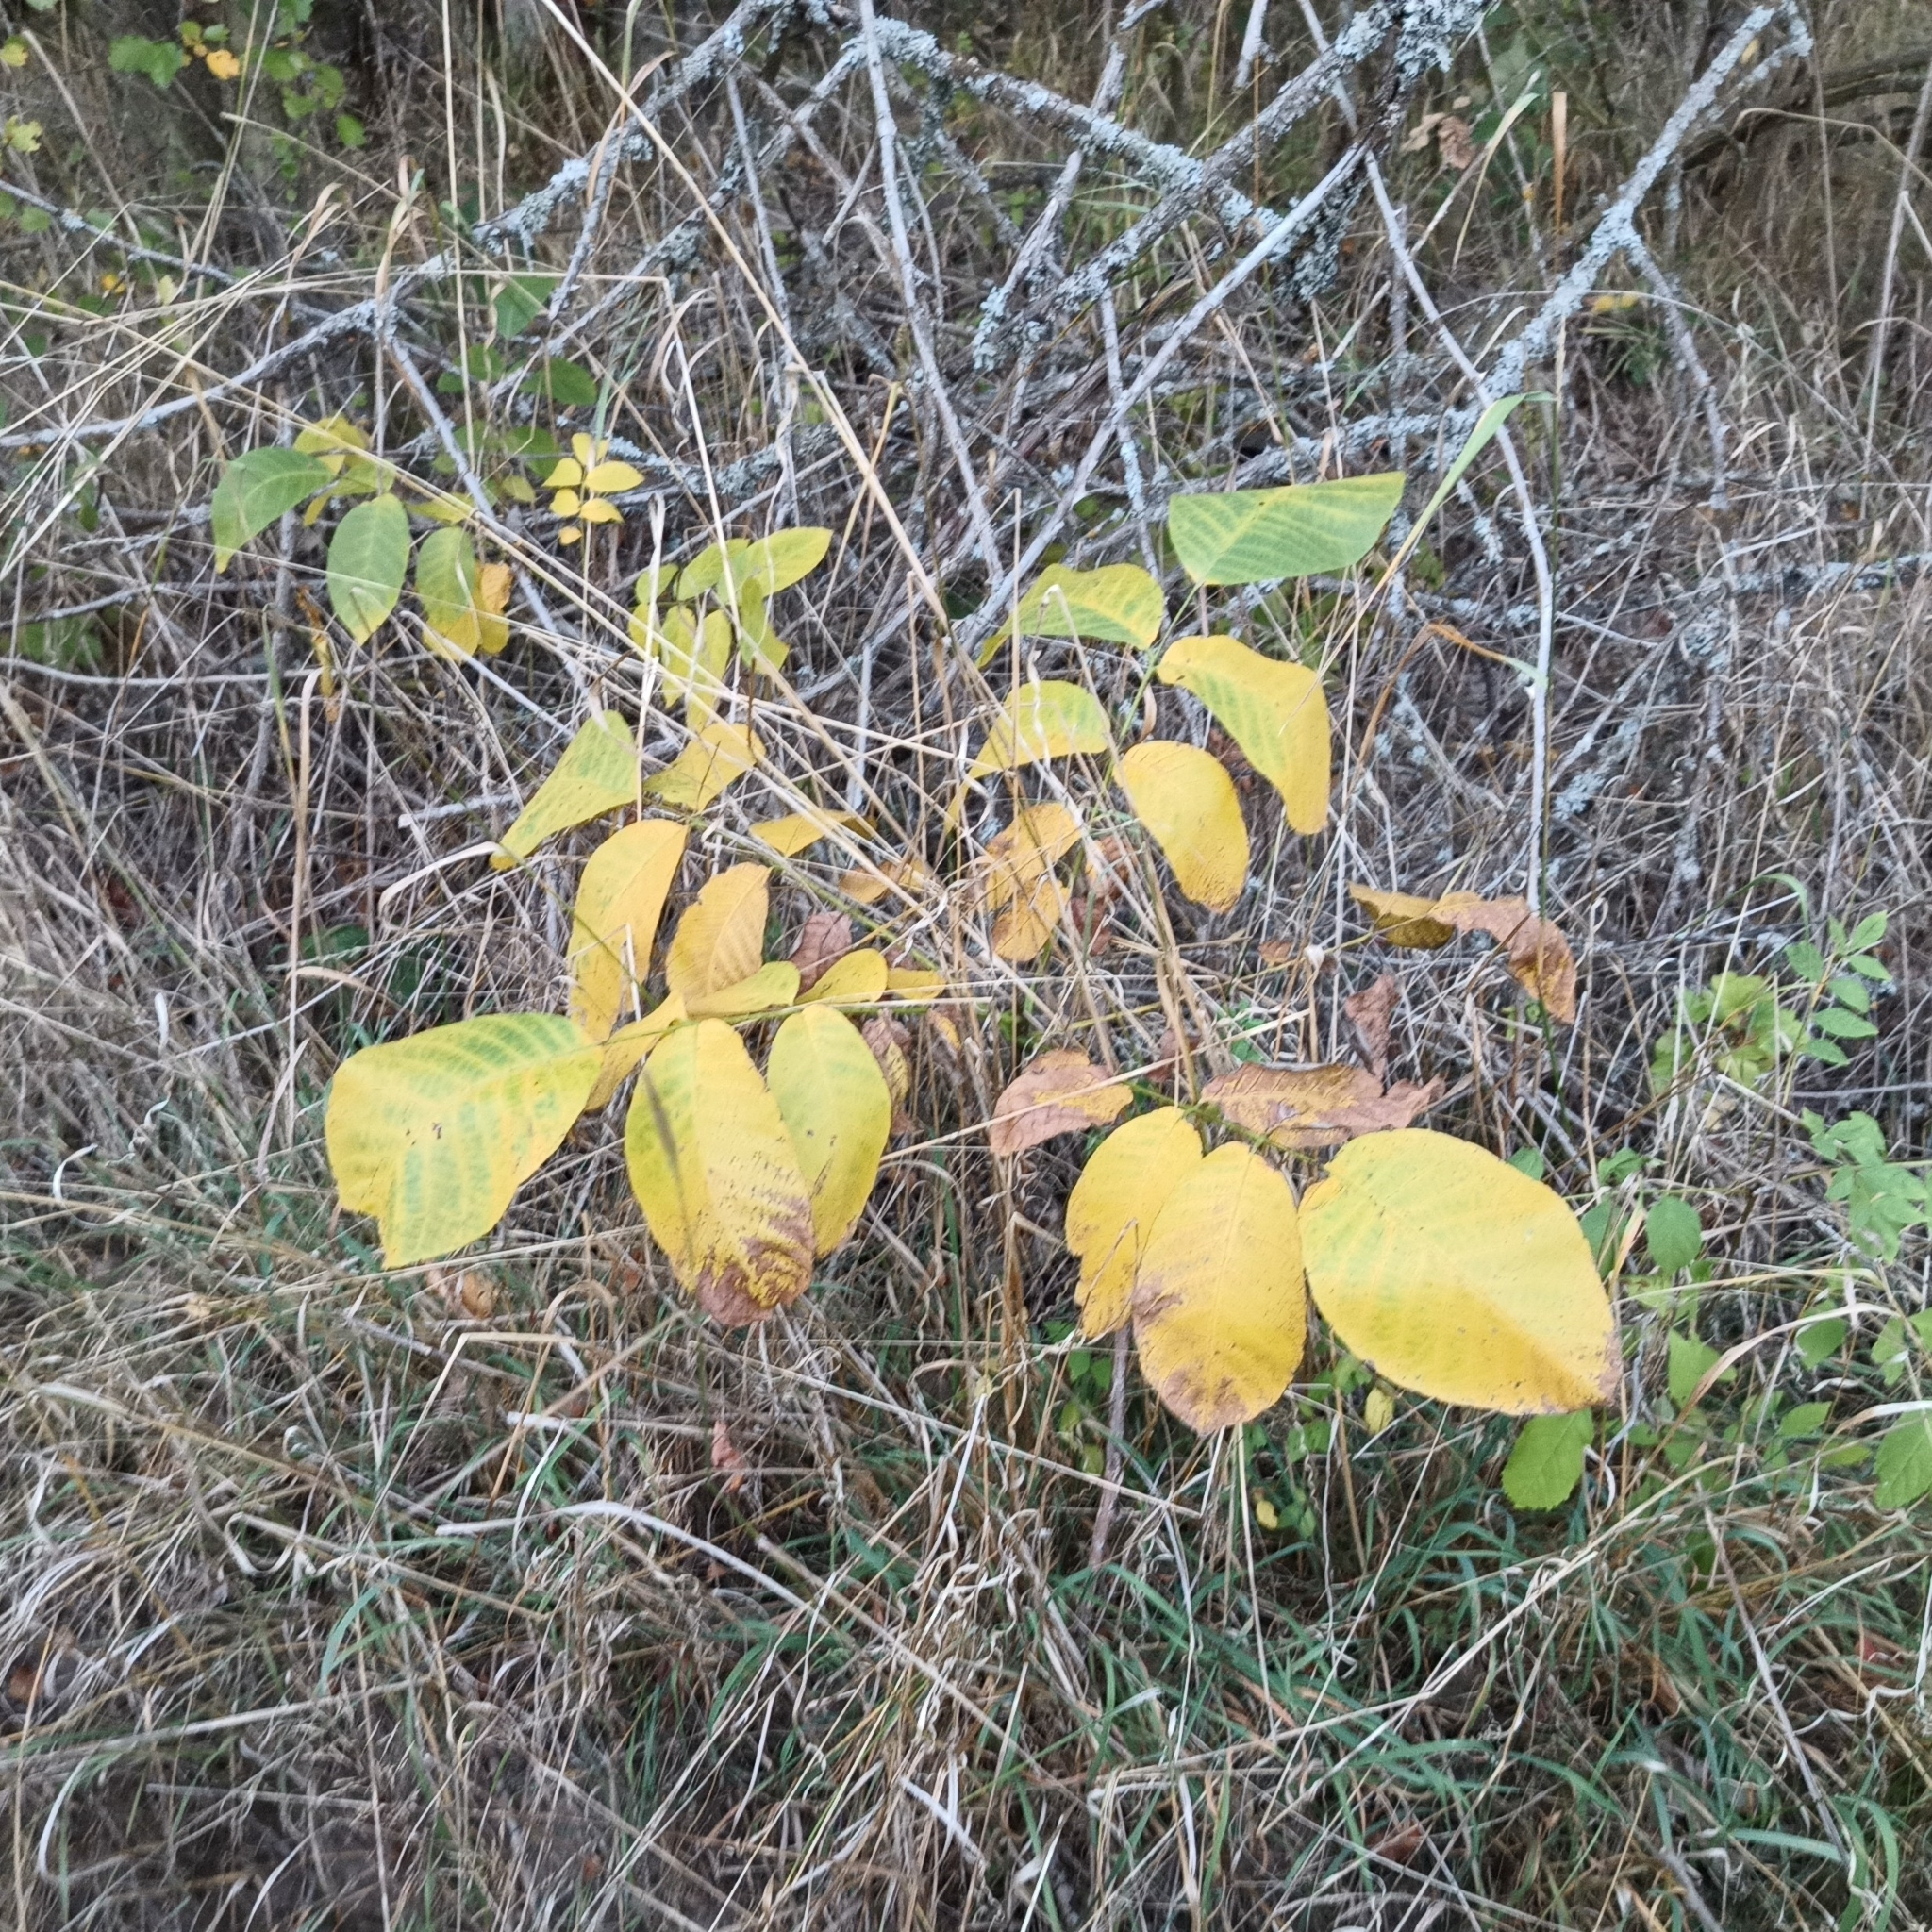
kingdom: Plantae
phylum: Tracheophyta
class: Magnoliopsida
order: Fagales
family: Juglandaceae
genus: Juglans
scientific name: Juglans regia
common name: Walnut
